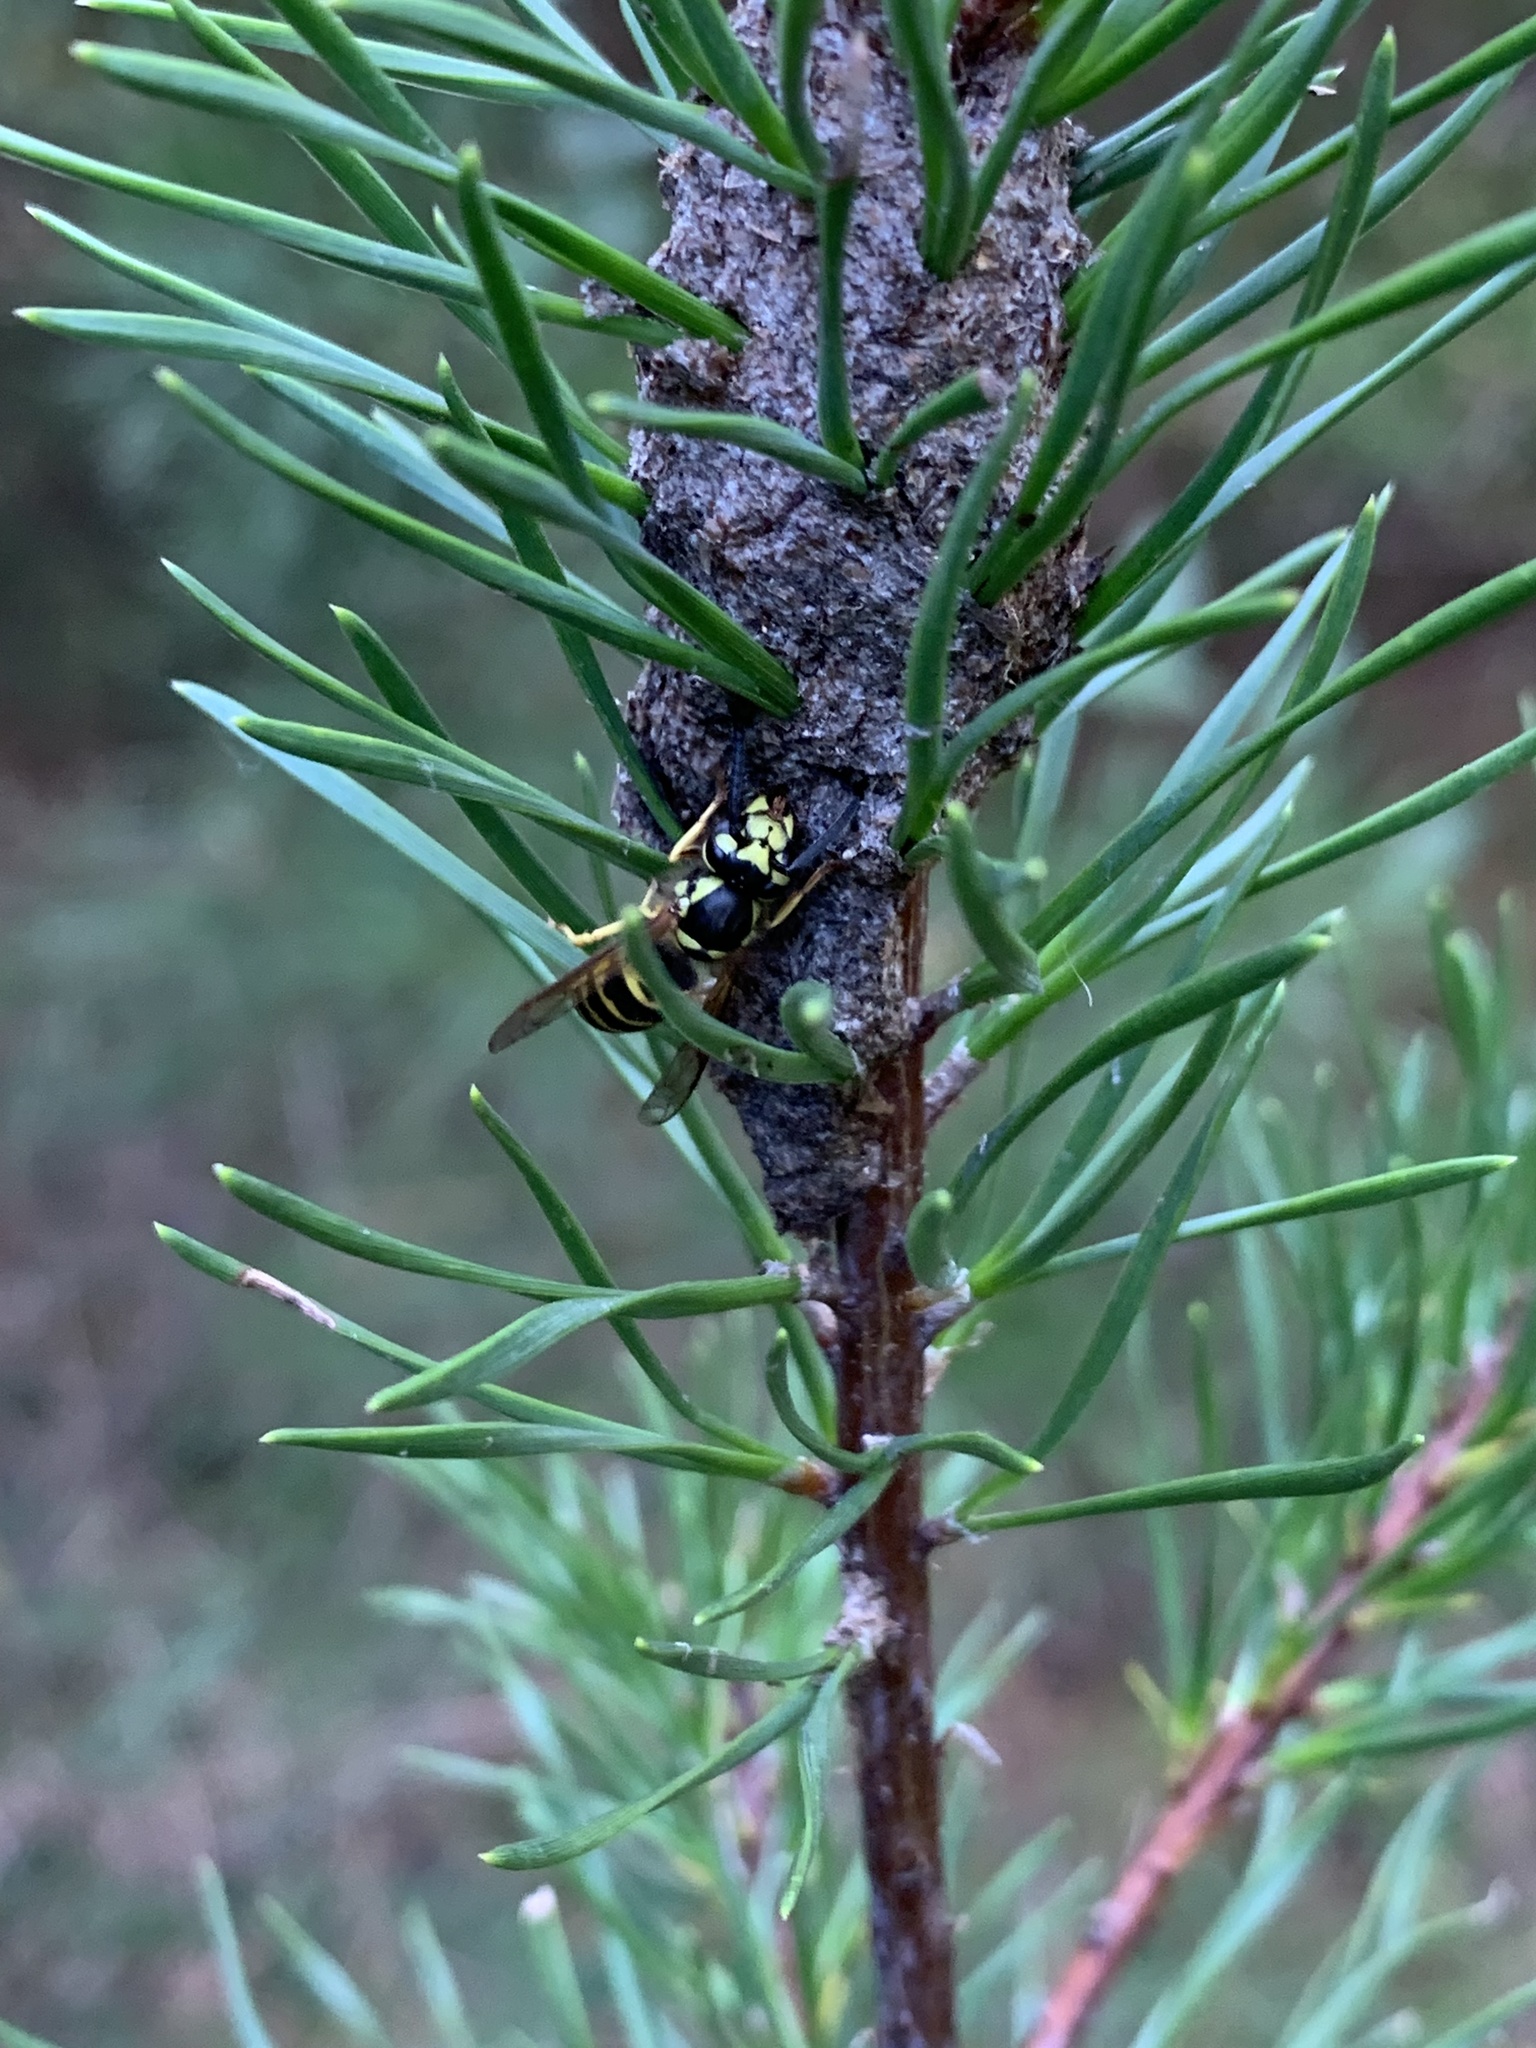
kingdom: Animalia
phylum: Arthropoda
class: Insecta
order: Hymenoptera
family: Vespidae
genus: Vespula
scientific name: Vespula maculifrons
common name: Eastern yellowjacket
